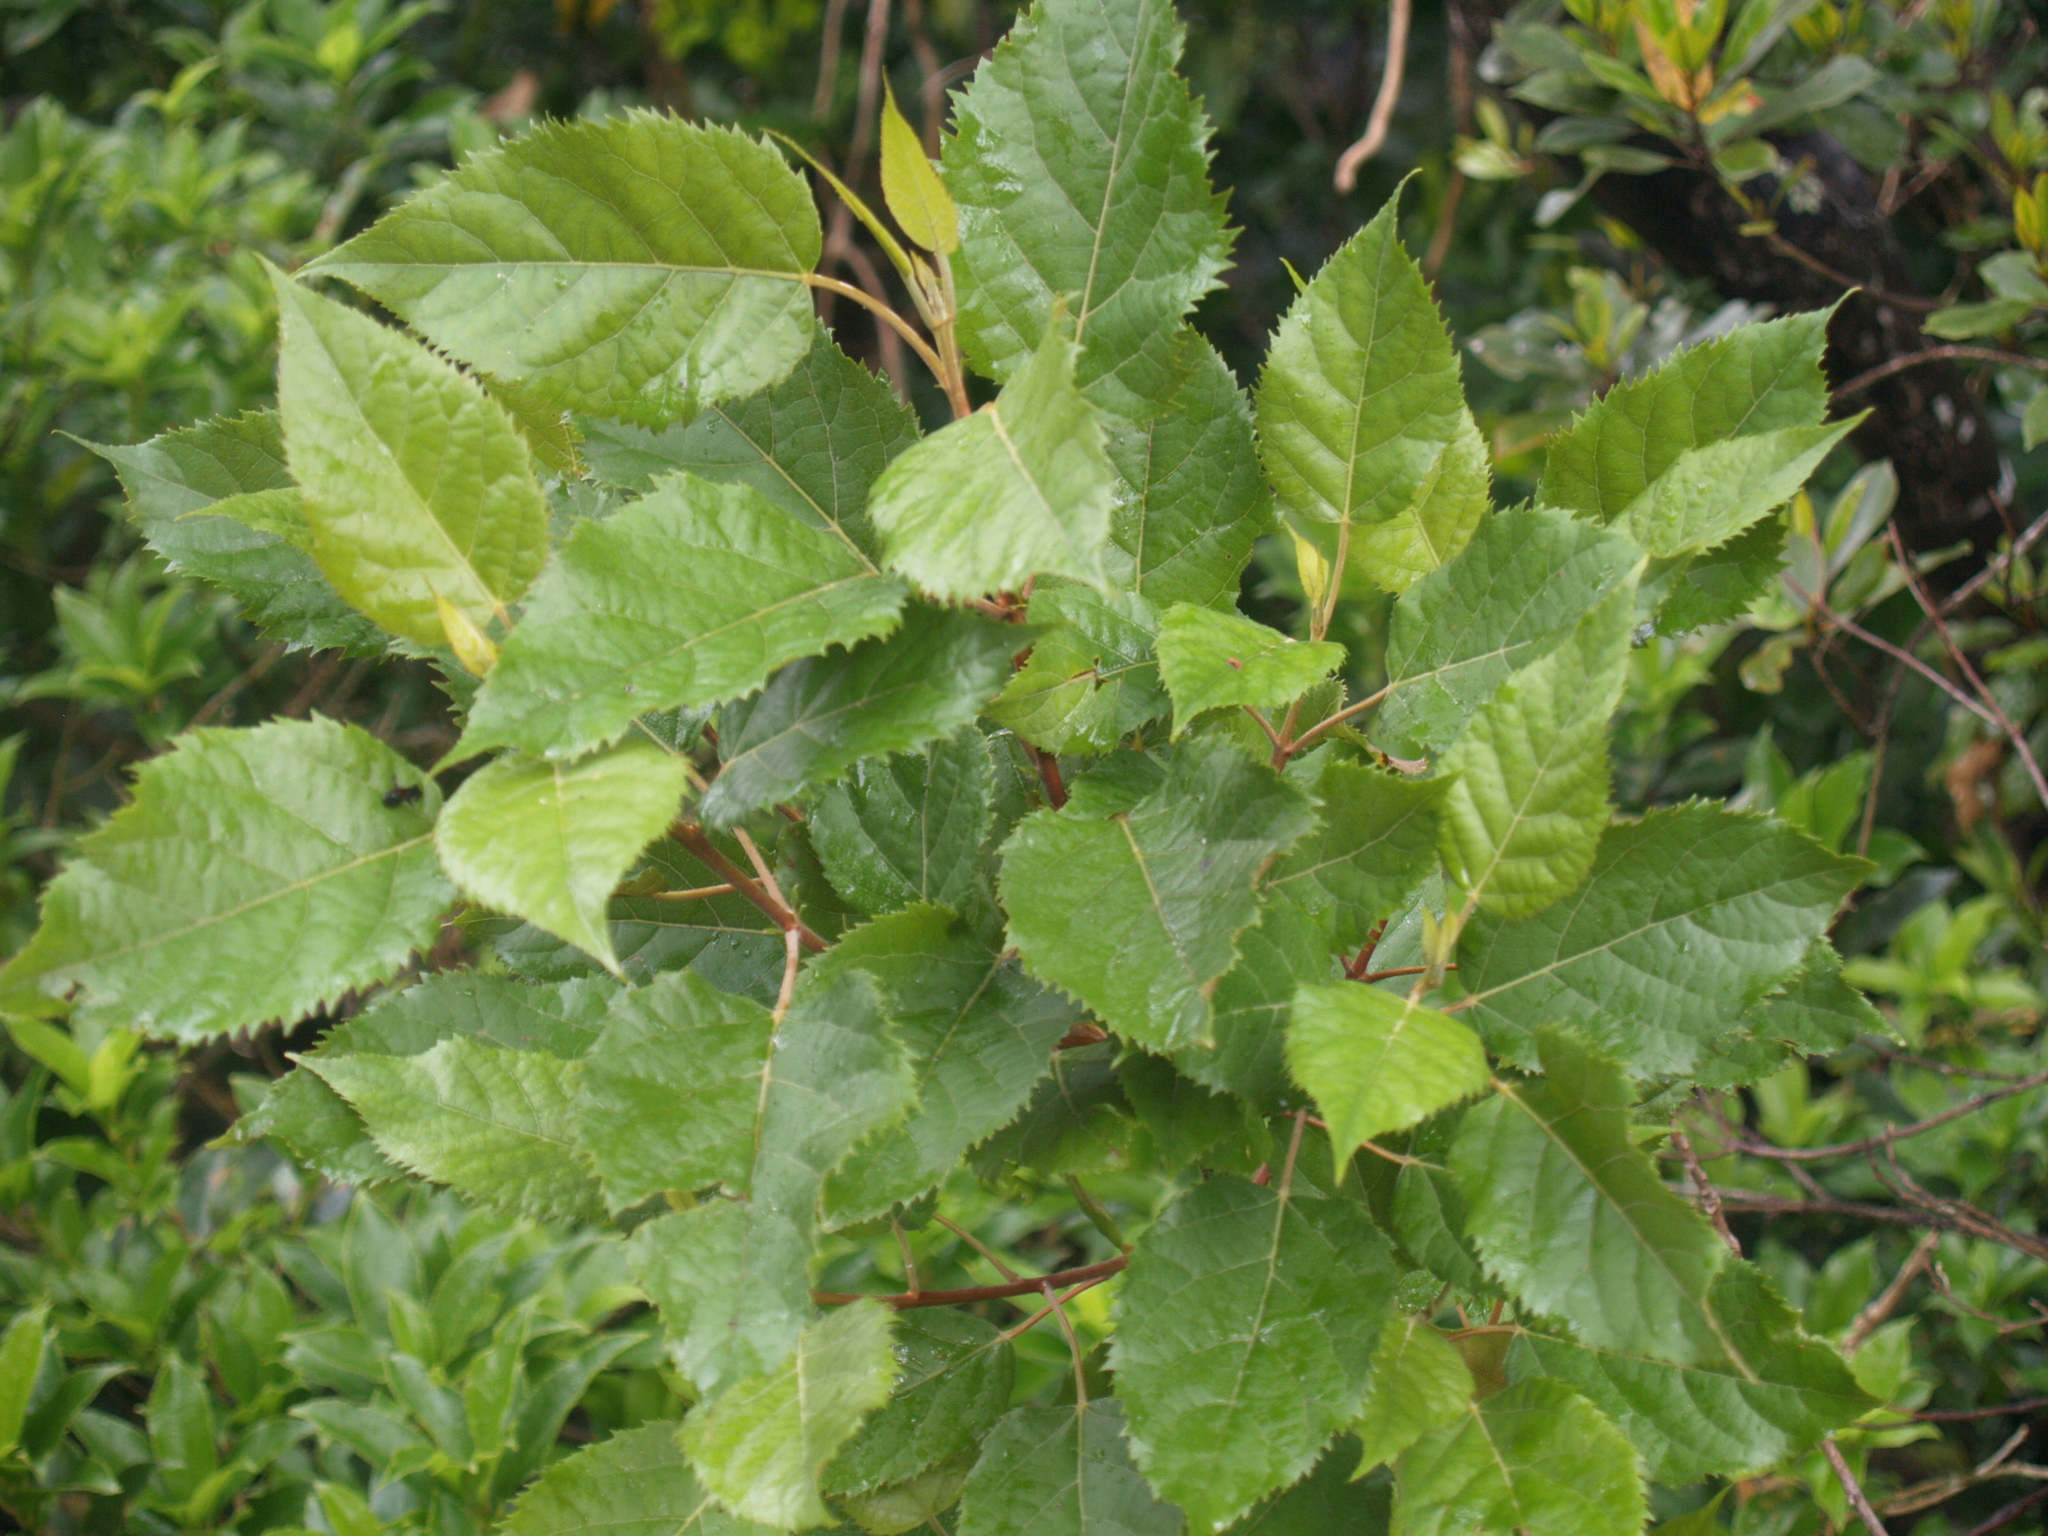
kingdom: Plantae
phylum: Tracheophyta
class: Magnoliopsida
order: Oxalidales
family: Elaeocarpaceae
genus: Aristotelia
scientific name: Aristotelia serrata
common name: New zealand wineberry
